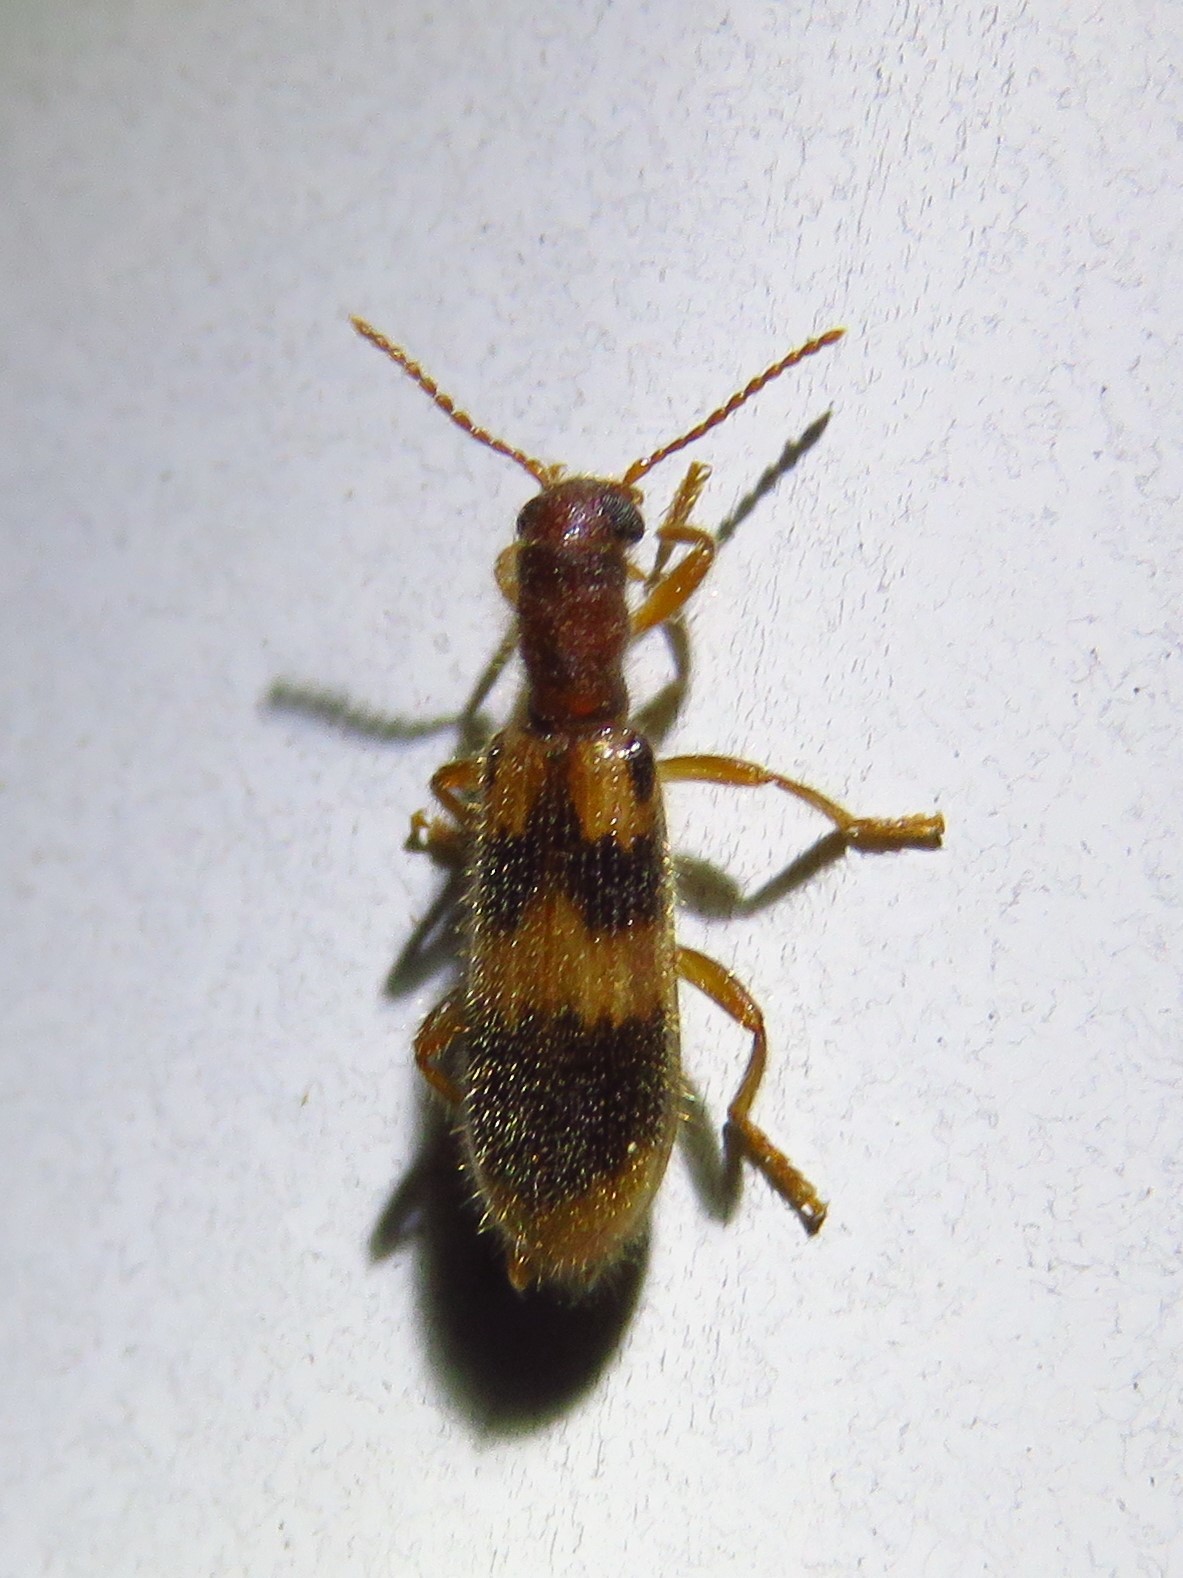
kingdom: Animalia
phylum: Arthropoda
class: Insecta
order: Coleoptera
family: Cleridae
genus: Cymatodera
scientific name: Cymatodera sirpata
